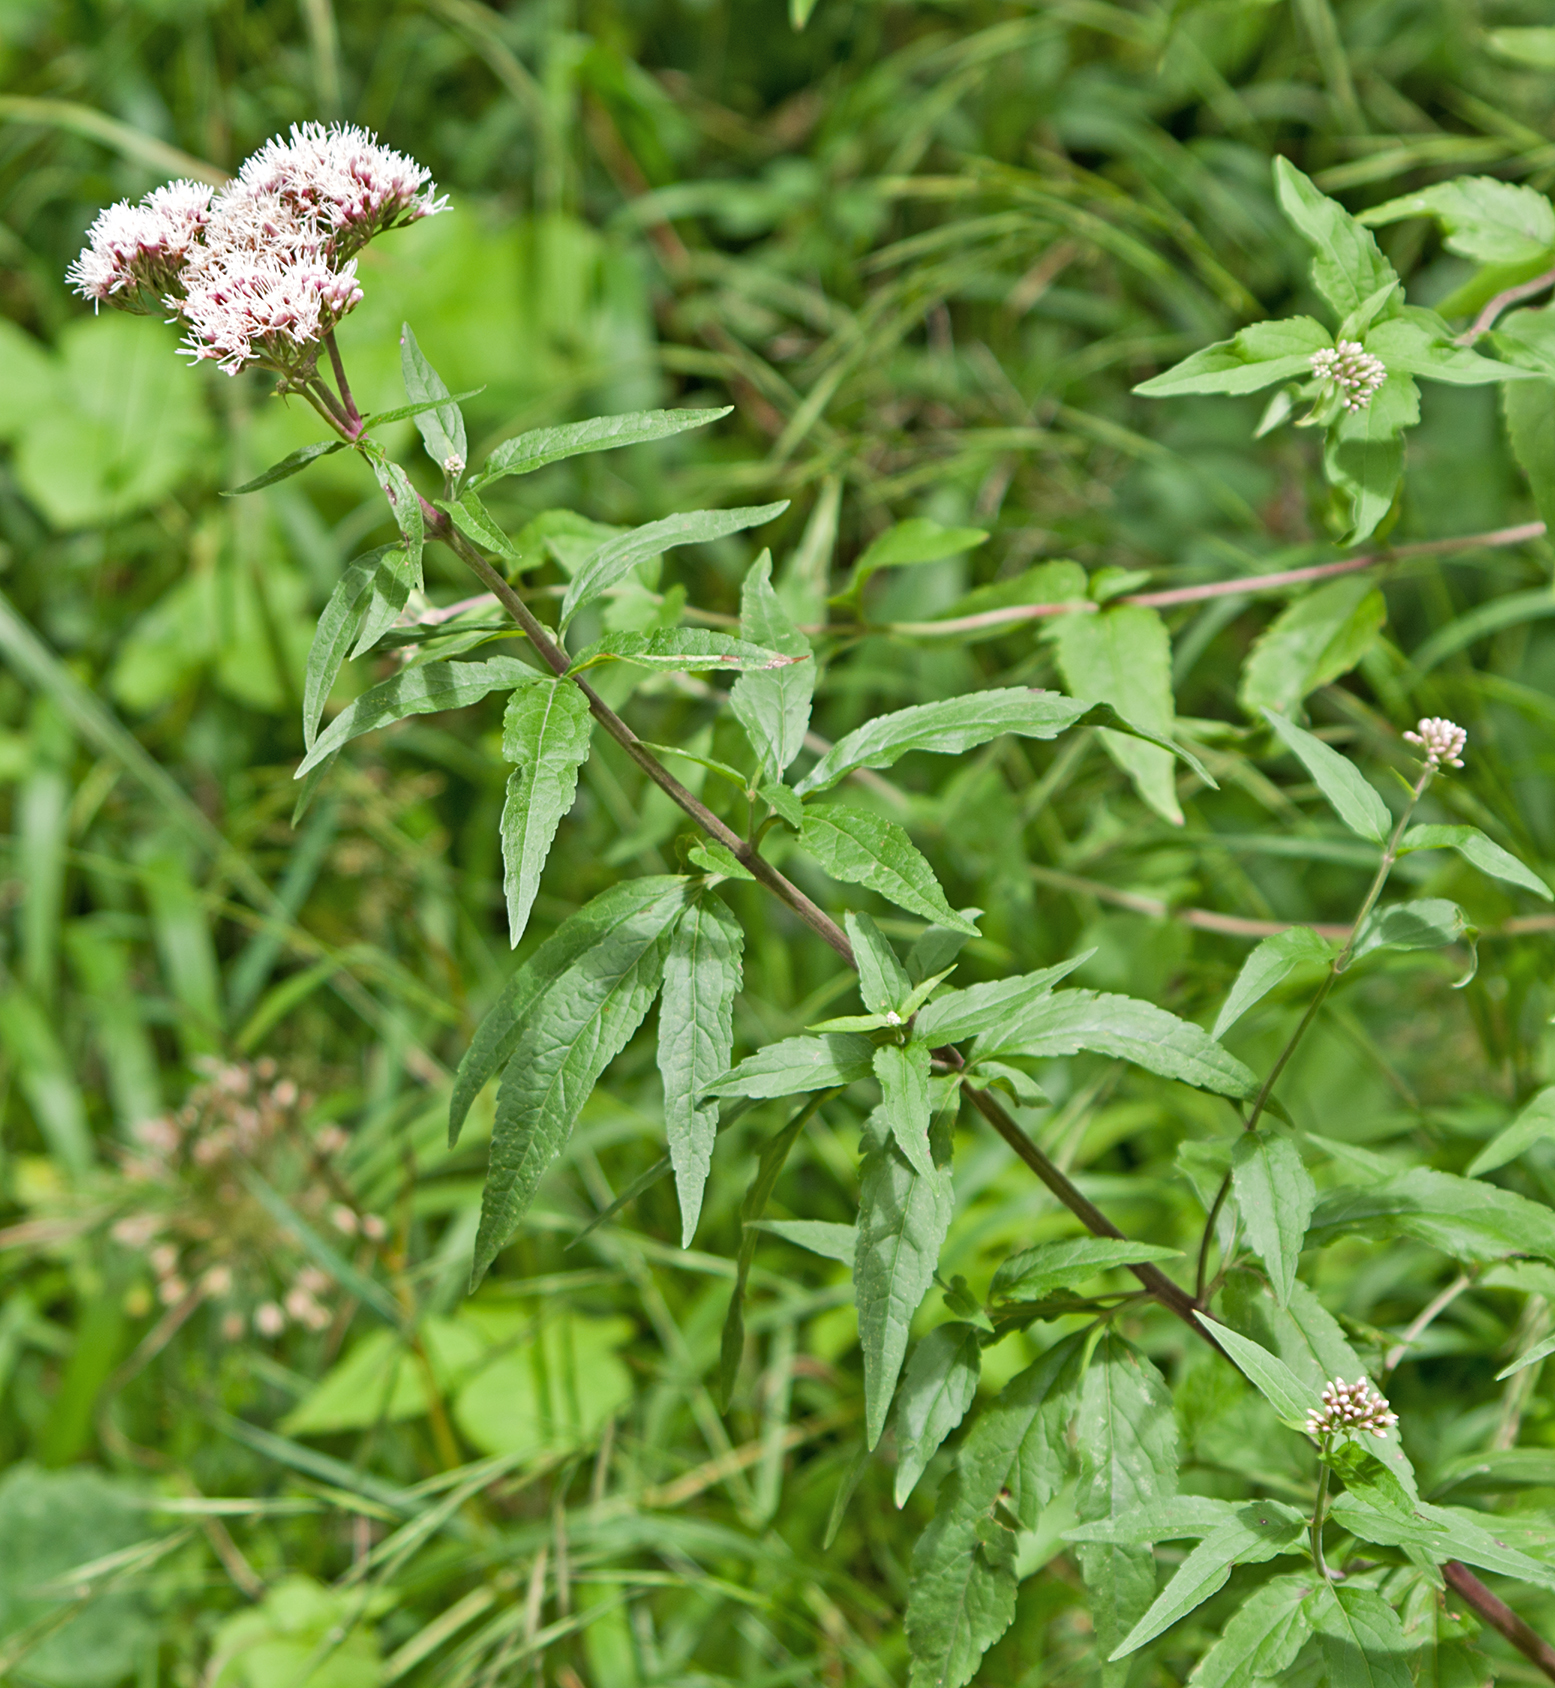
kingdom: Plantae
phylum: Tracheophyta
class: Magnoliopsida
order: Asterales
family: Asteraceae
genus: Eupatorium
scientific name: Eupatorium cannabinum
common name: Hemp-agrimony
